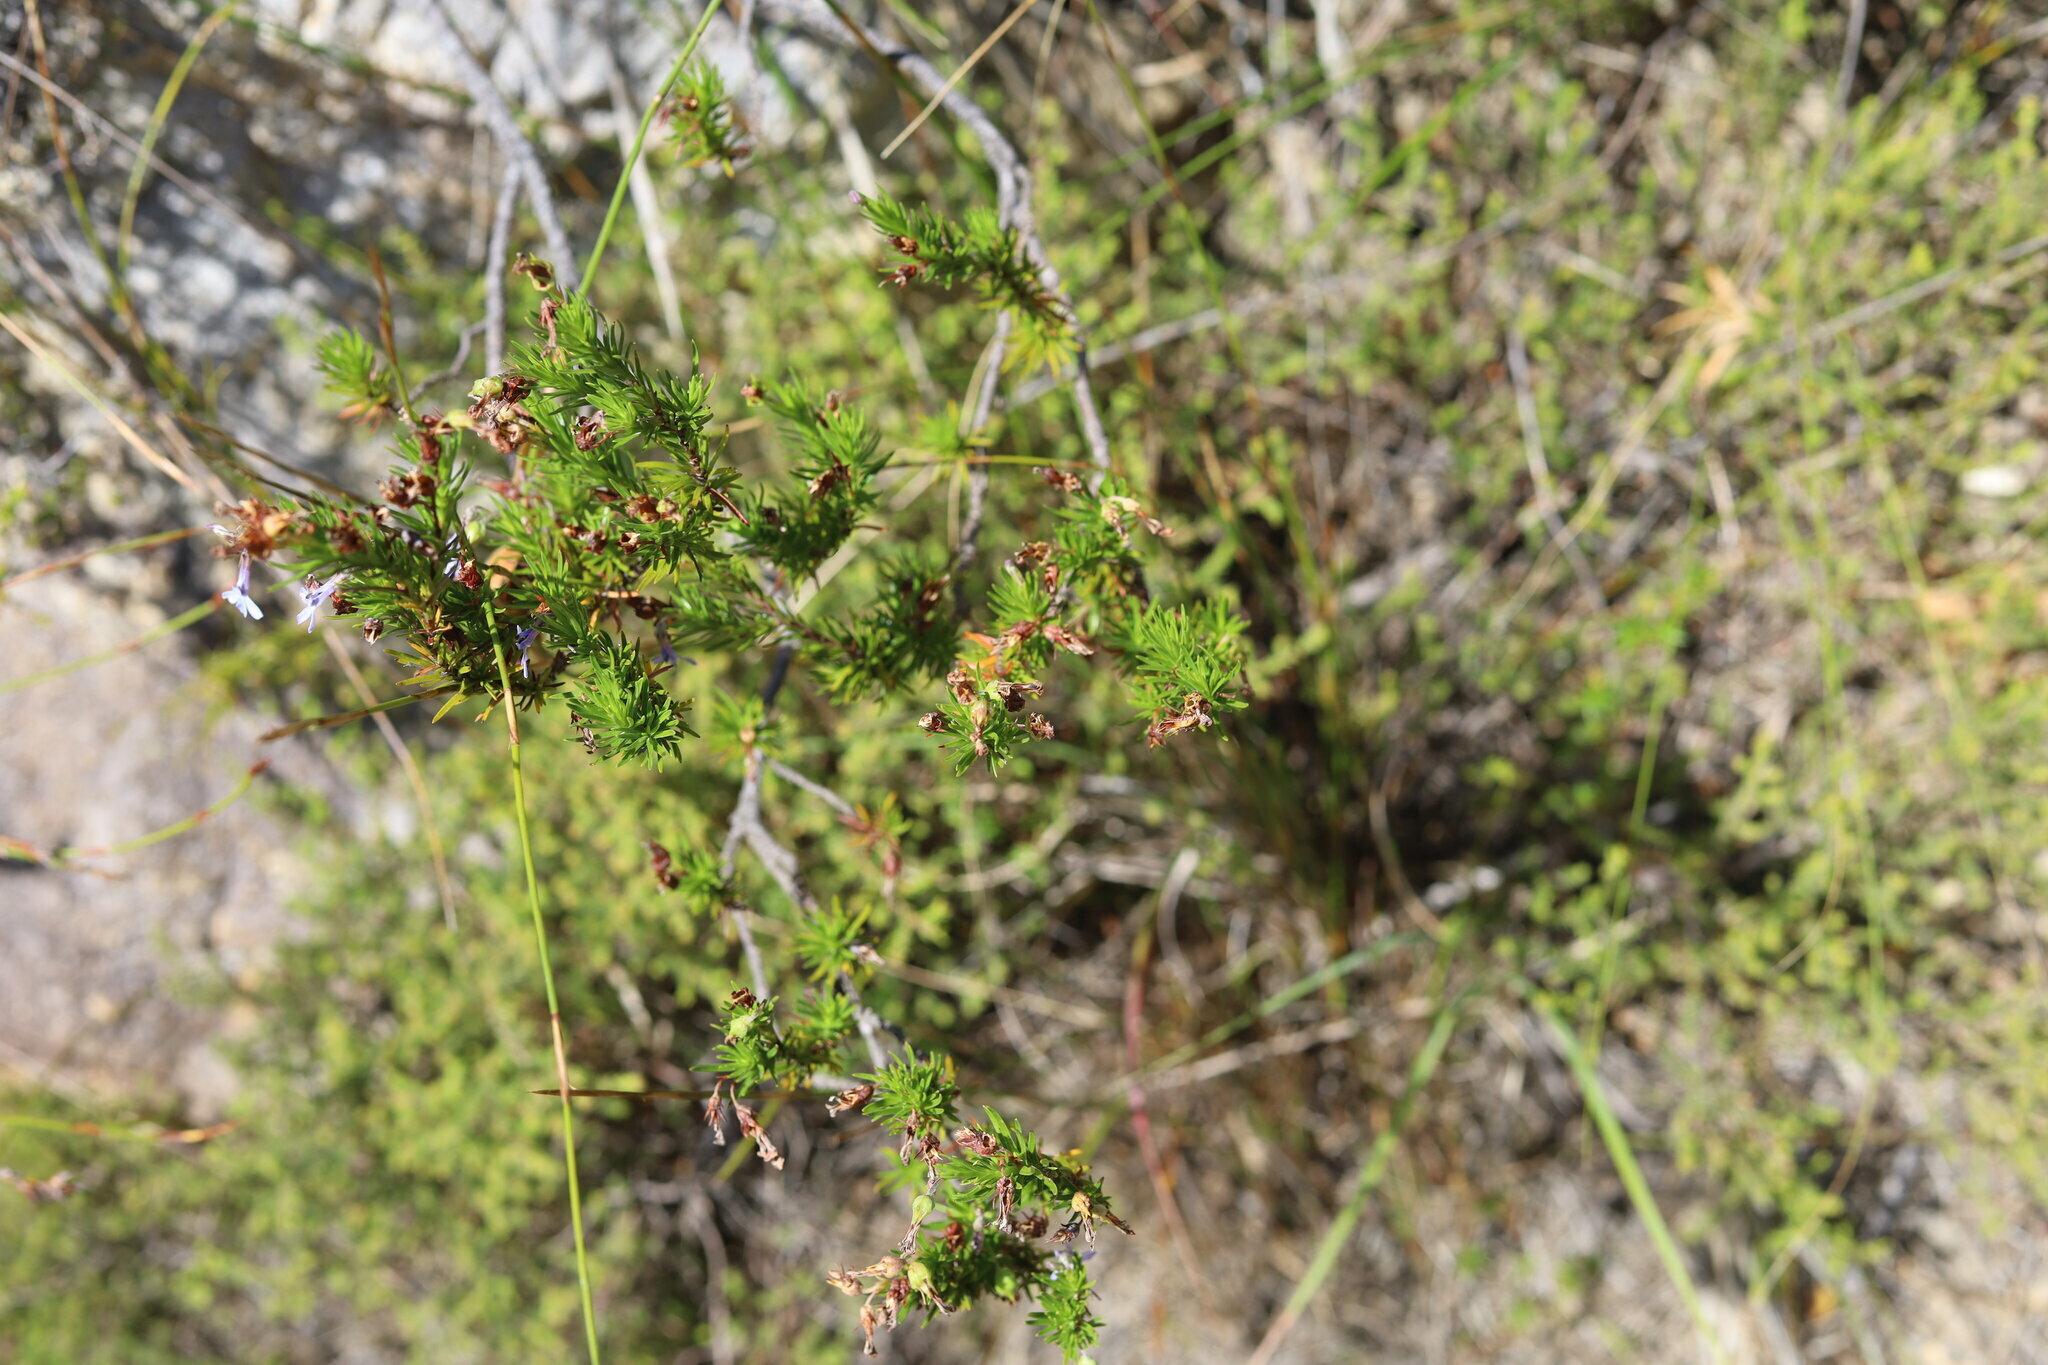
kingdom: Plantae
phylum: Tracheophyta
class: Magnoliopsida
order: Asterales
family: Campanulaceae
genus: Lobelia
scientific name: Lobelia pinifolia
